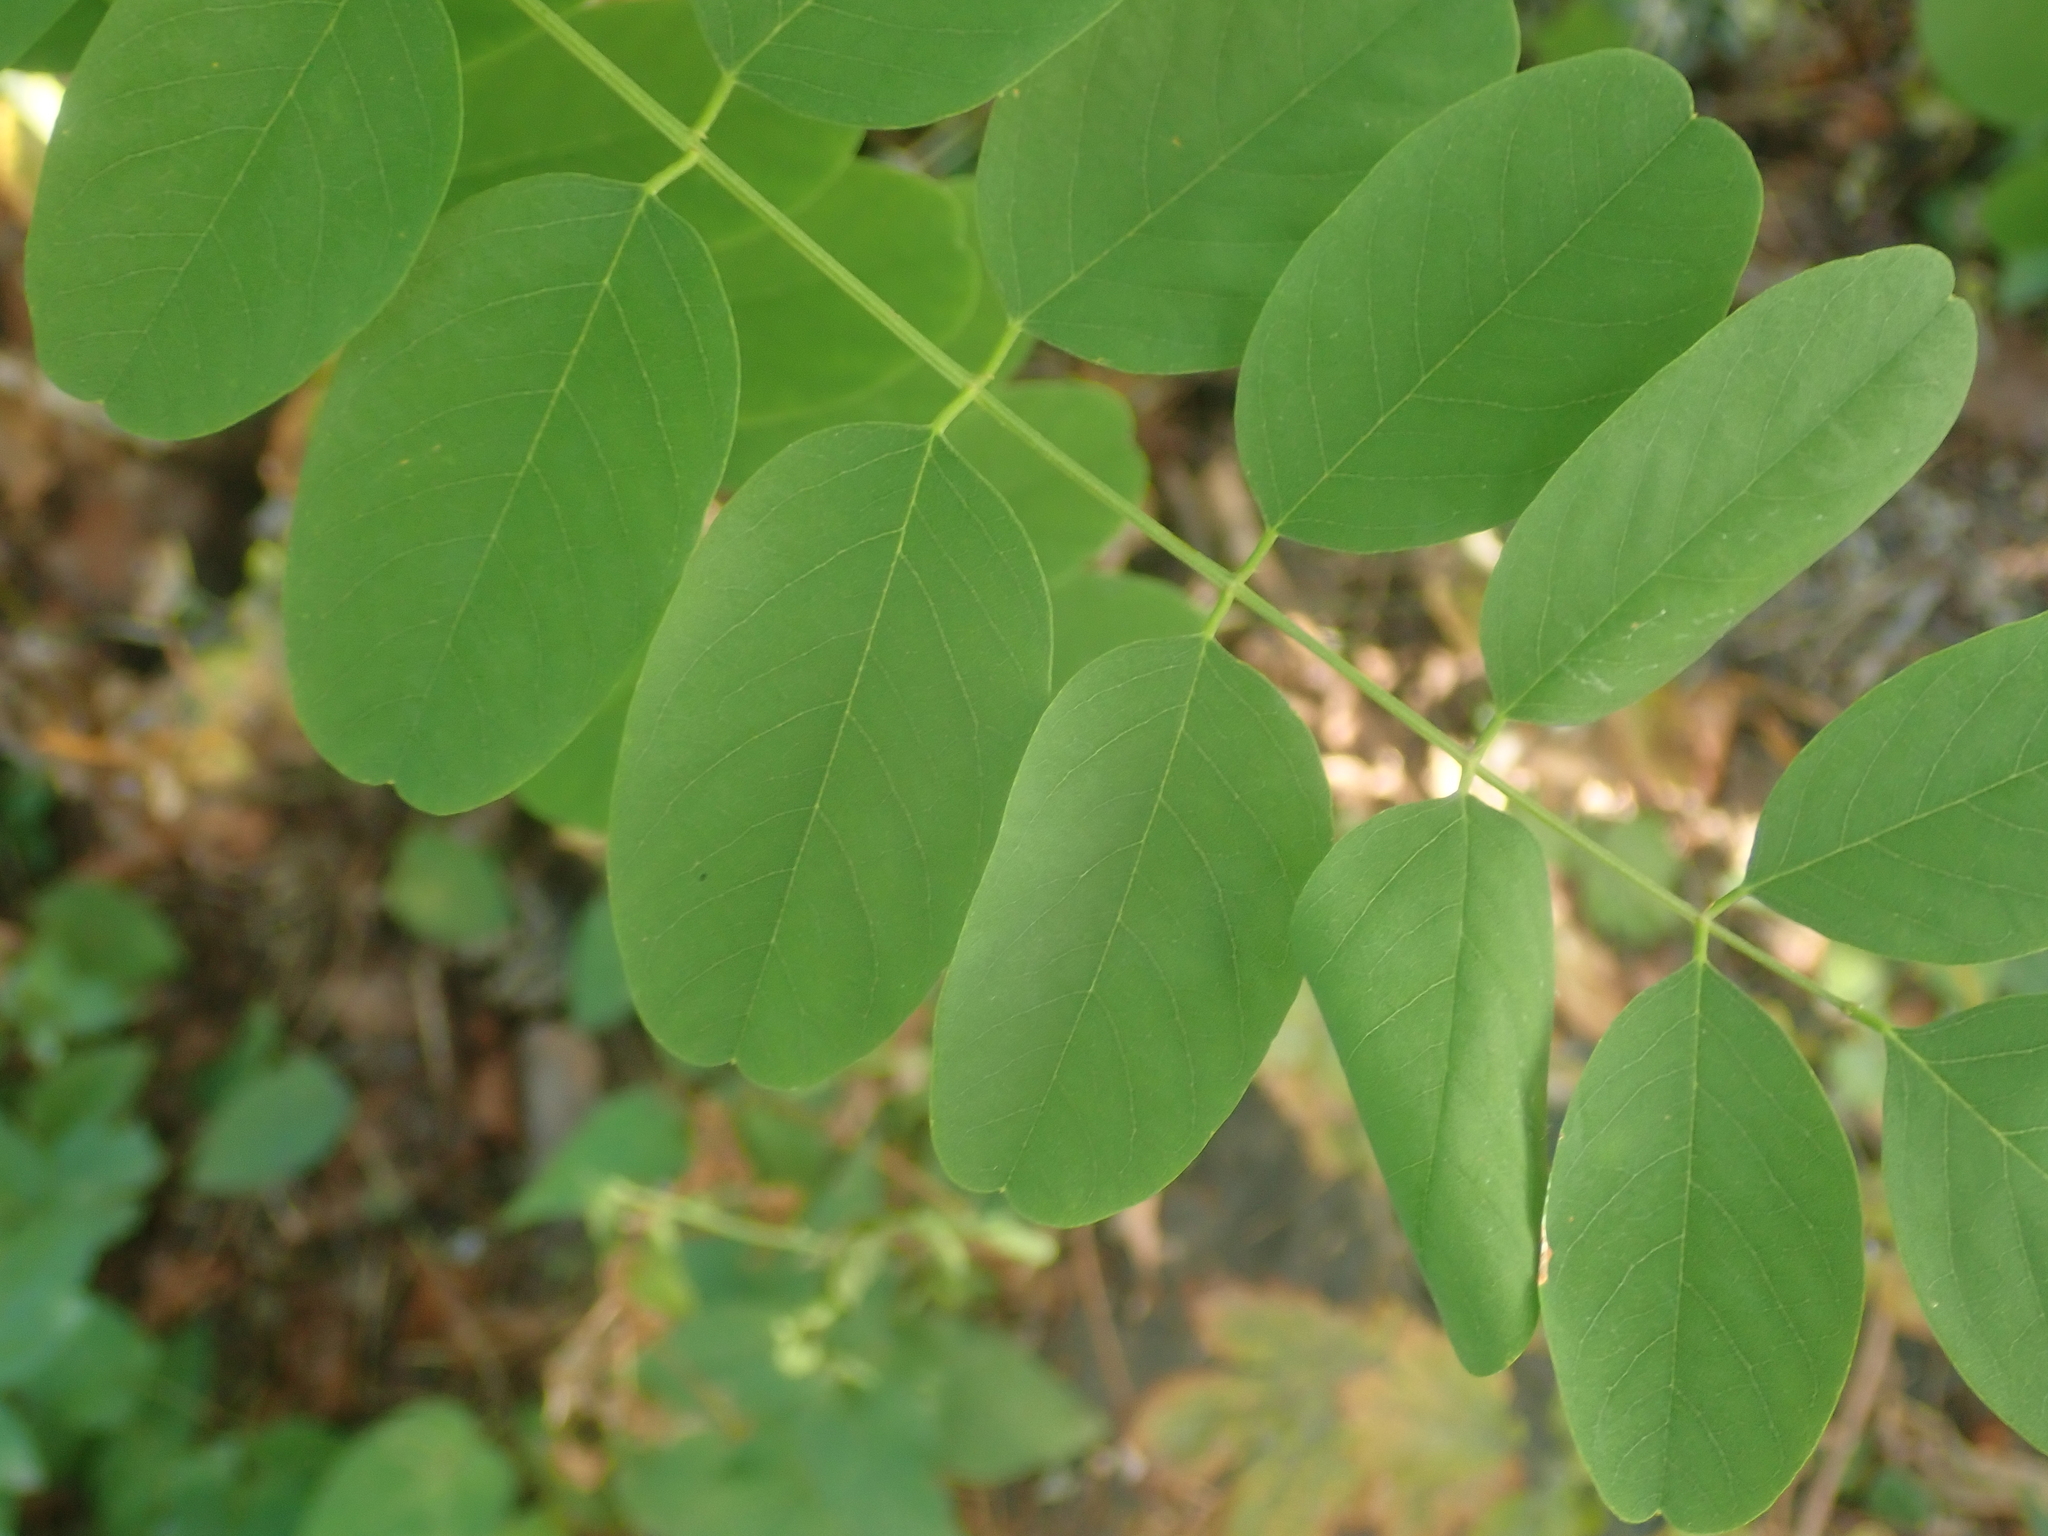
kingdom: Plantae
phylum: Tracheophyta
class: Magnoliopsida
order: Fabales
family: Fabaceae
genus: Robinia
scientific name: Robinia pseudoacacia
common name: Black locust
